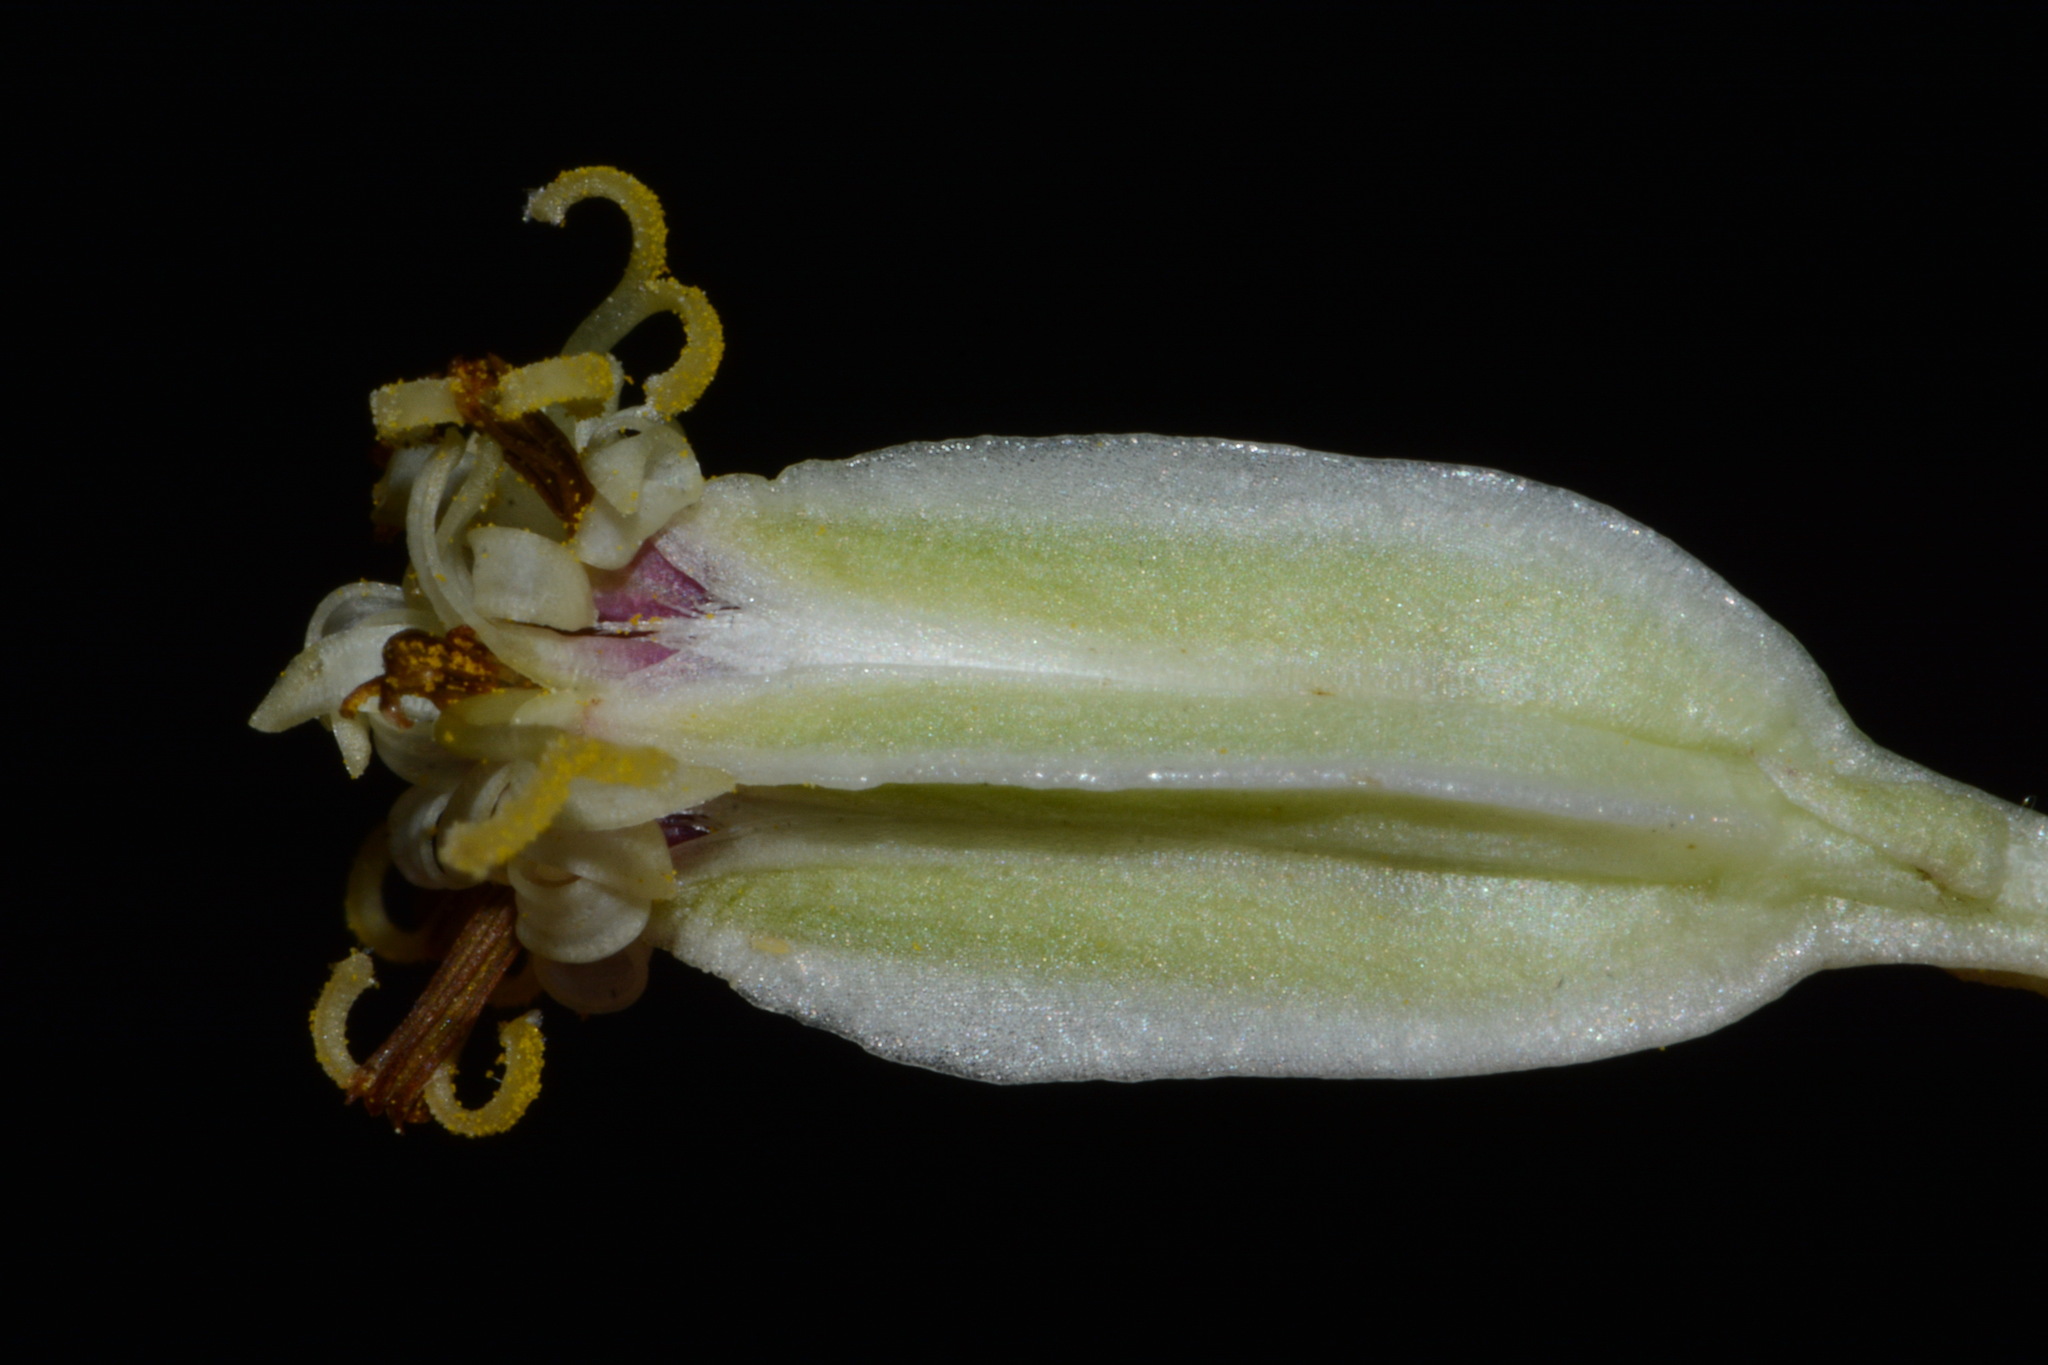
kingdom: Plantae
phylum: Tracheophyta
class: Magnoliopsida
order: Asterales
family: Asteraceae
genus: Arnoglossum
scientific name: Arnoglossum plantagineum
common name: Groove-stemmed indian-plantain
